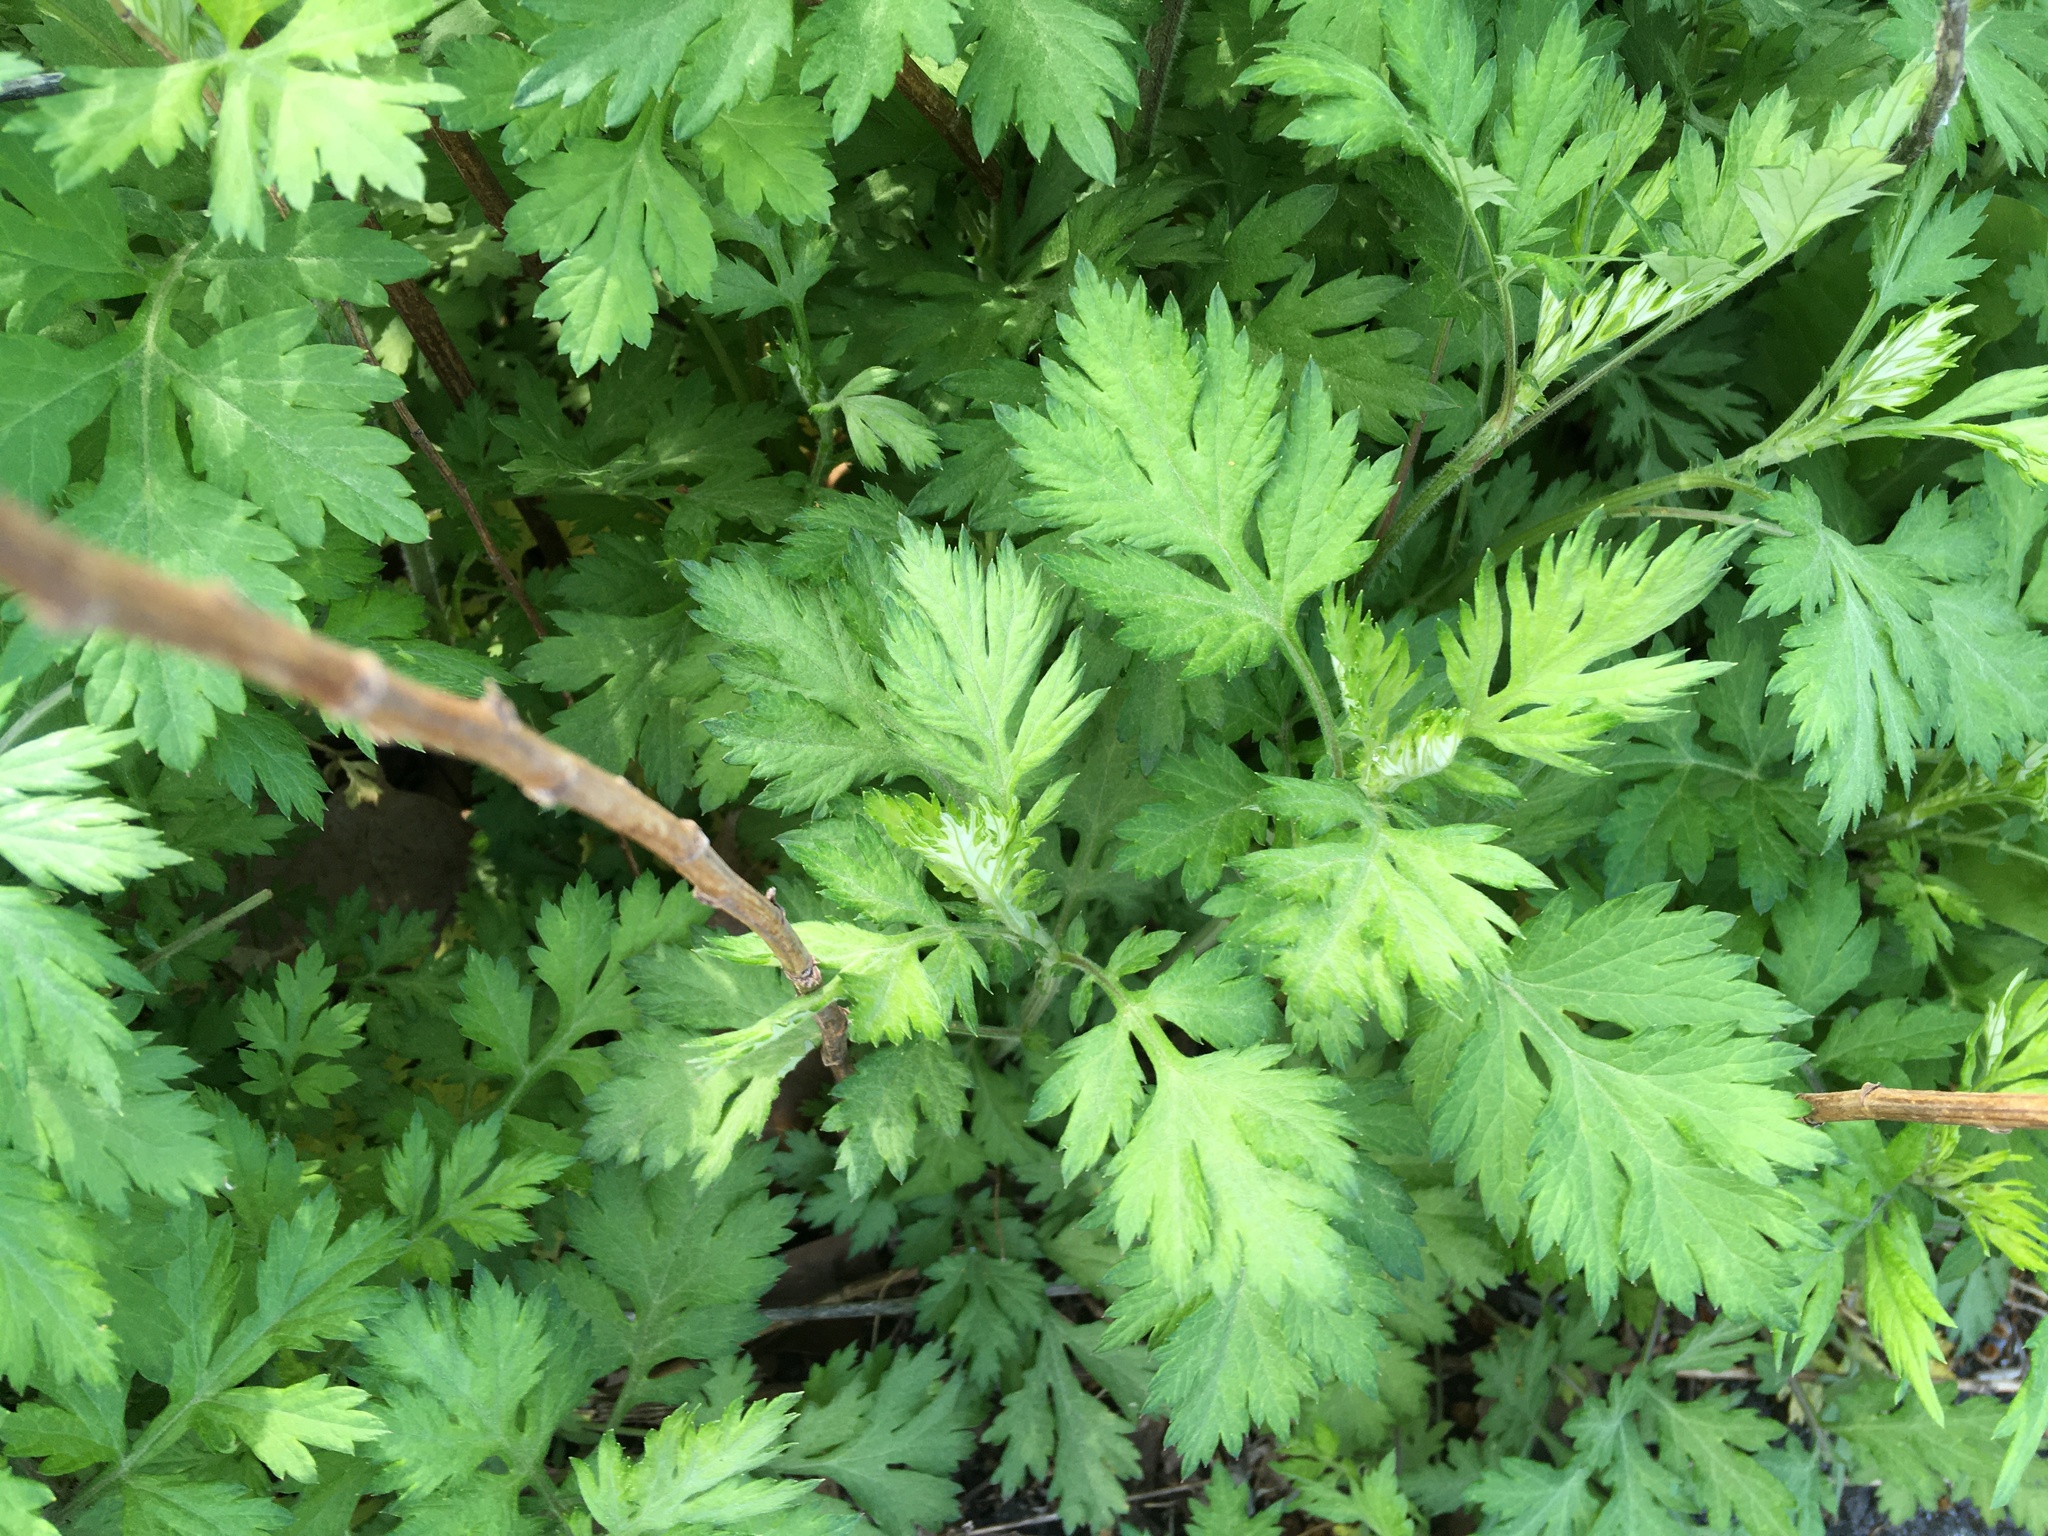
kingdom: Plantae
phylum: Tracheophyta
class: Magnoliopsida
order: Asterales
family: Asteraceae
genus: Artemisia
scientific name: Artemisia vulgaris
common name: Mugwort
